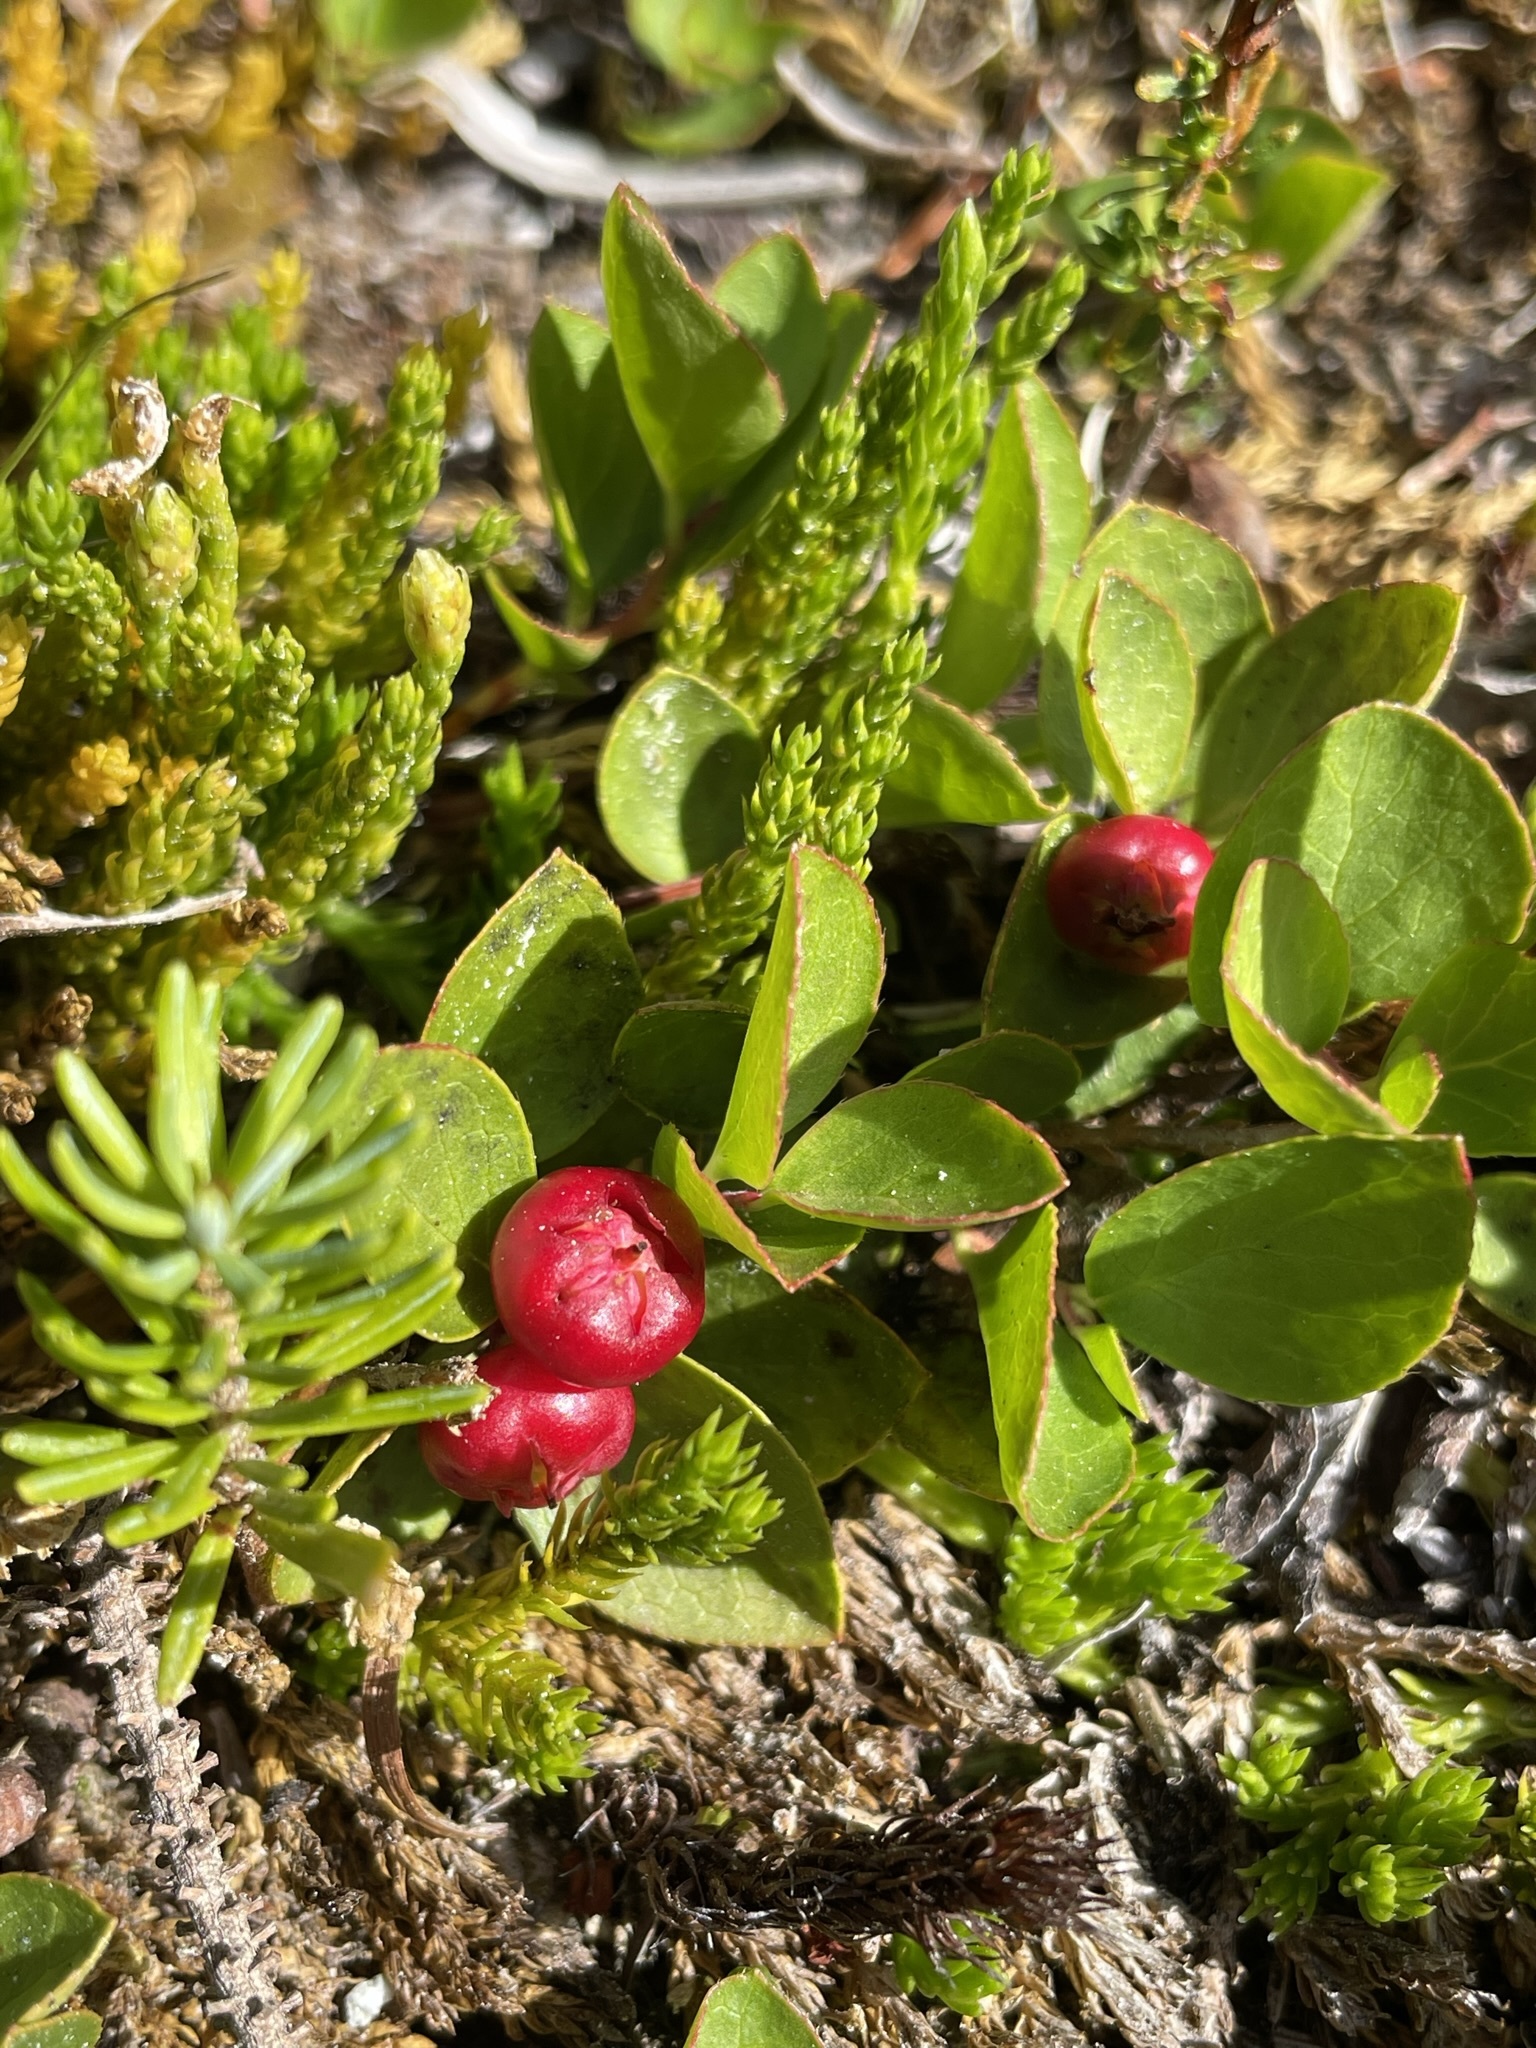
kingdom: Plantae
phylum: Tracheophyta
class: Magnoliopsida
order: Ericales
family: Ericaceae
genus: Gaultheria
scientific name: Gaultheria humifusa
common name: Alpine wintergreen
